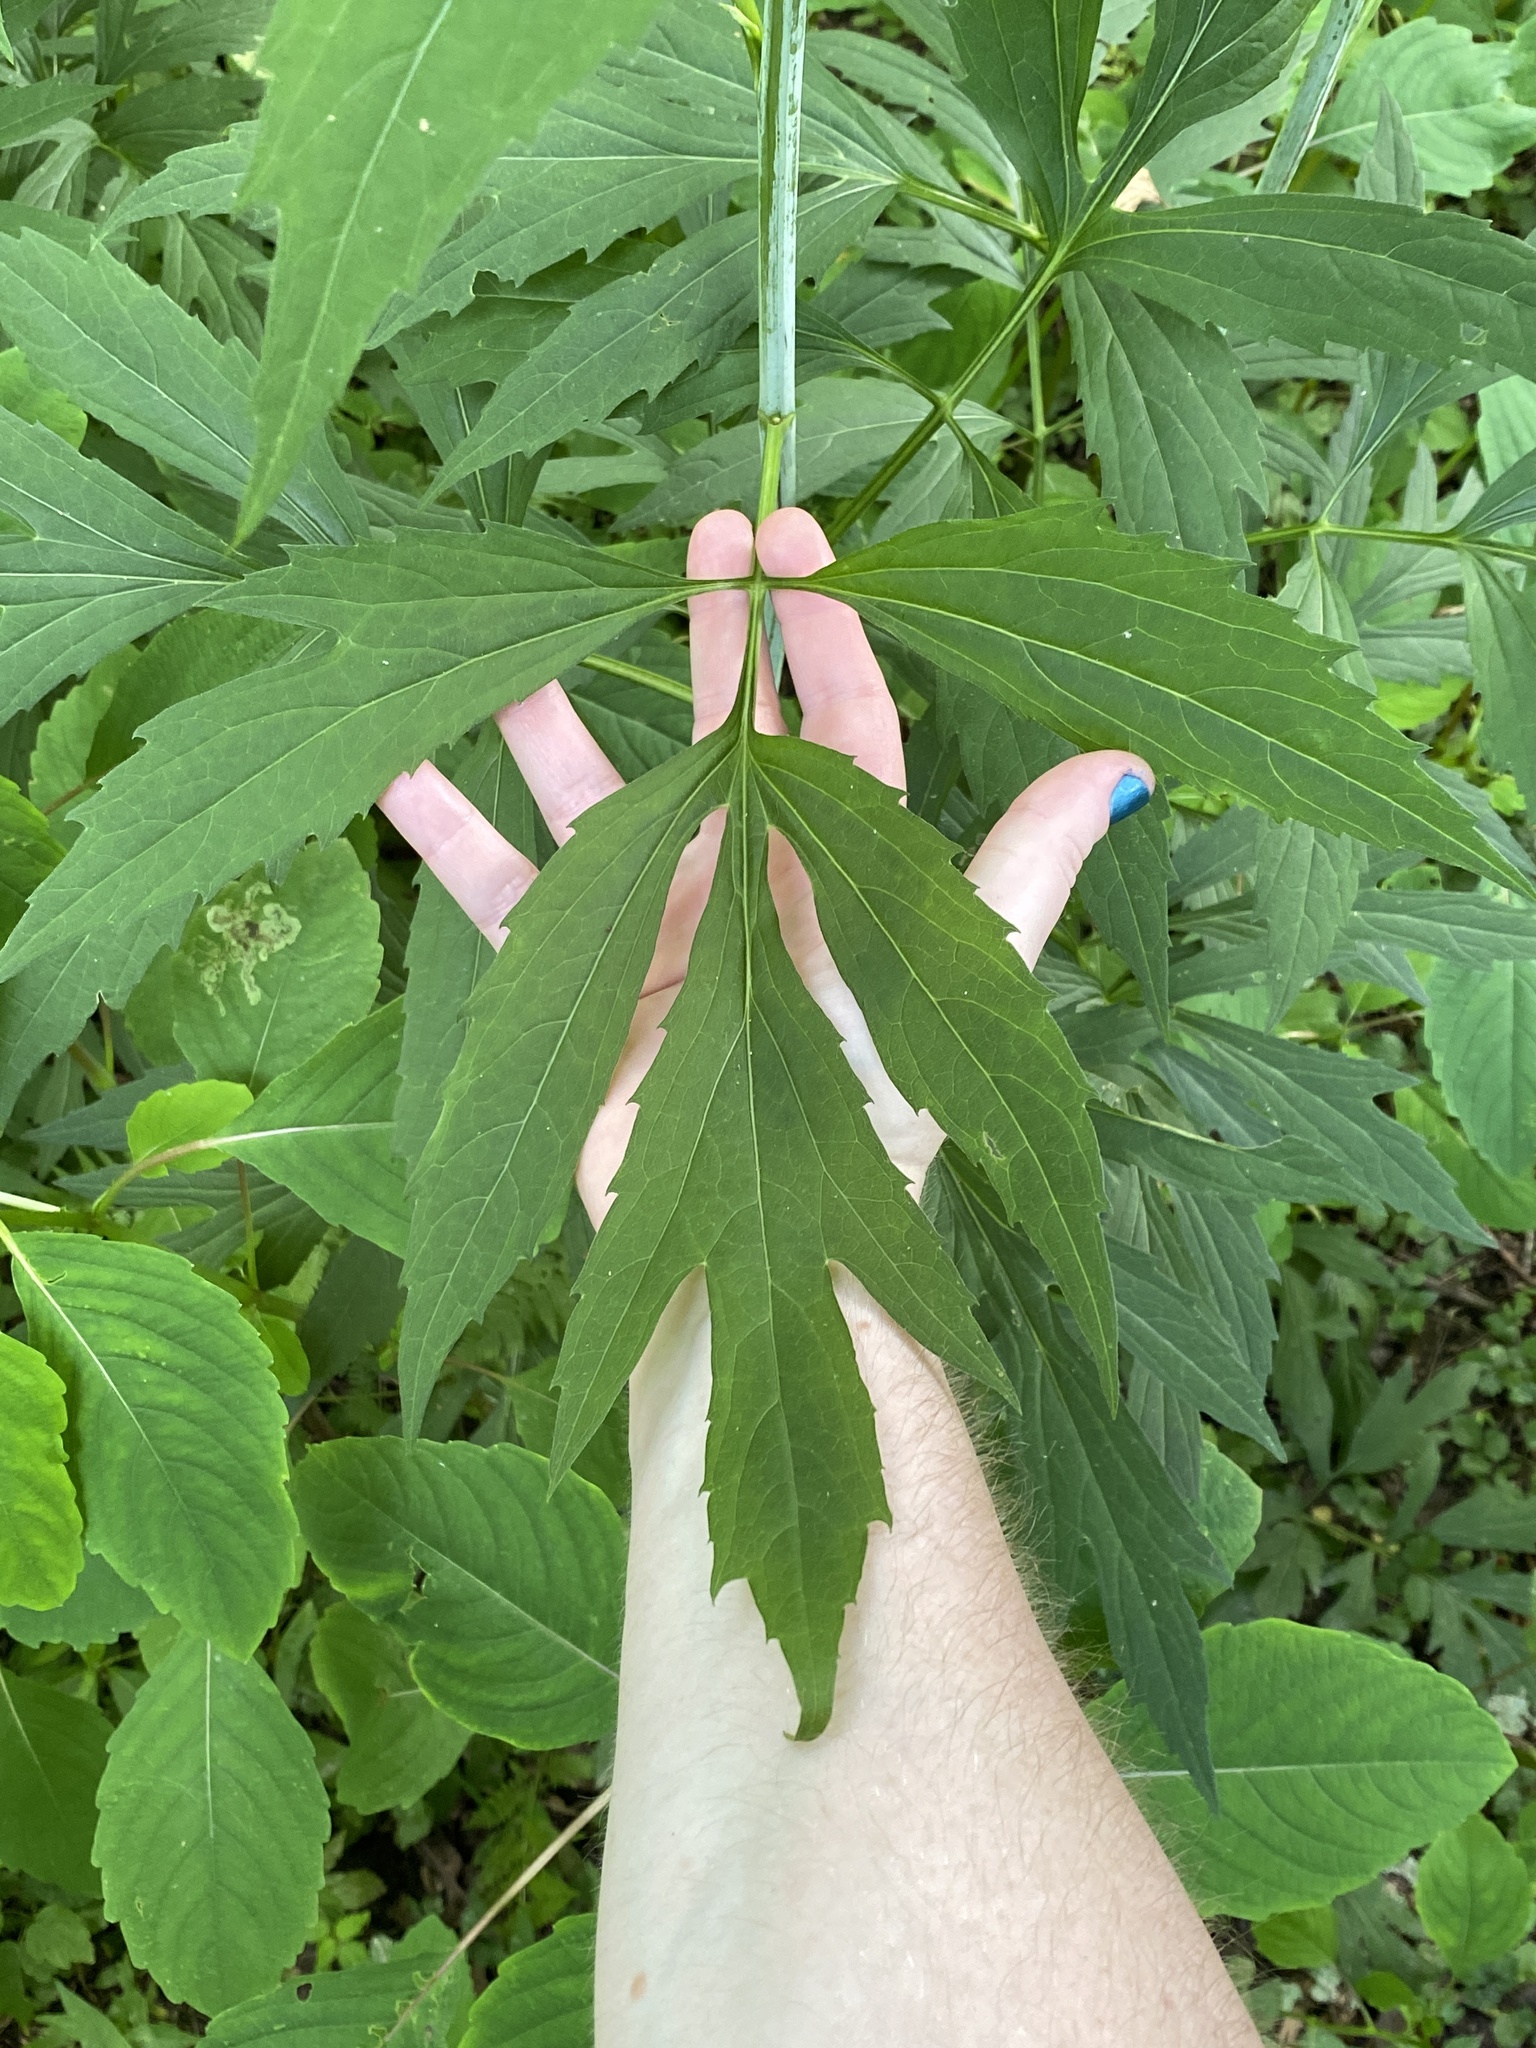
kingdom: Plantae
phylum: Tracheophyta
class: Magnoliopsida
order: Asterales
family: Asteraceae
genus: Rudbeckia
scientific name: Rudbeckia laciniata
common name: Coneflower
